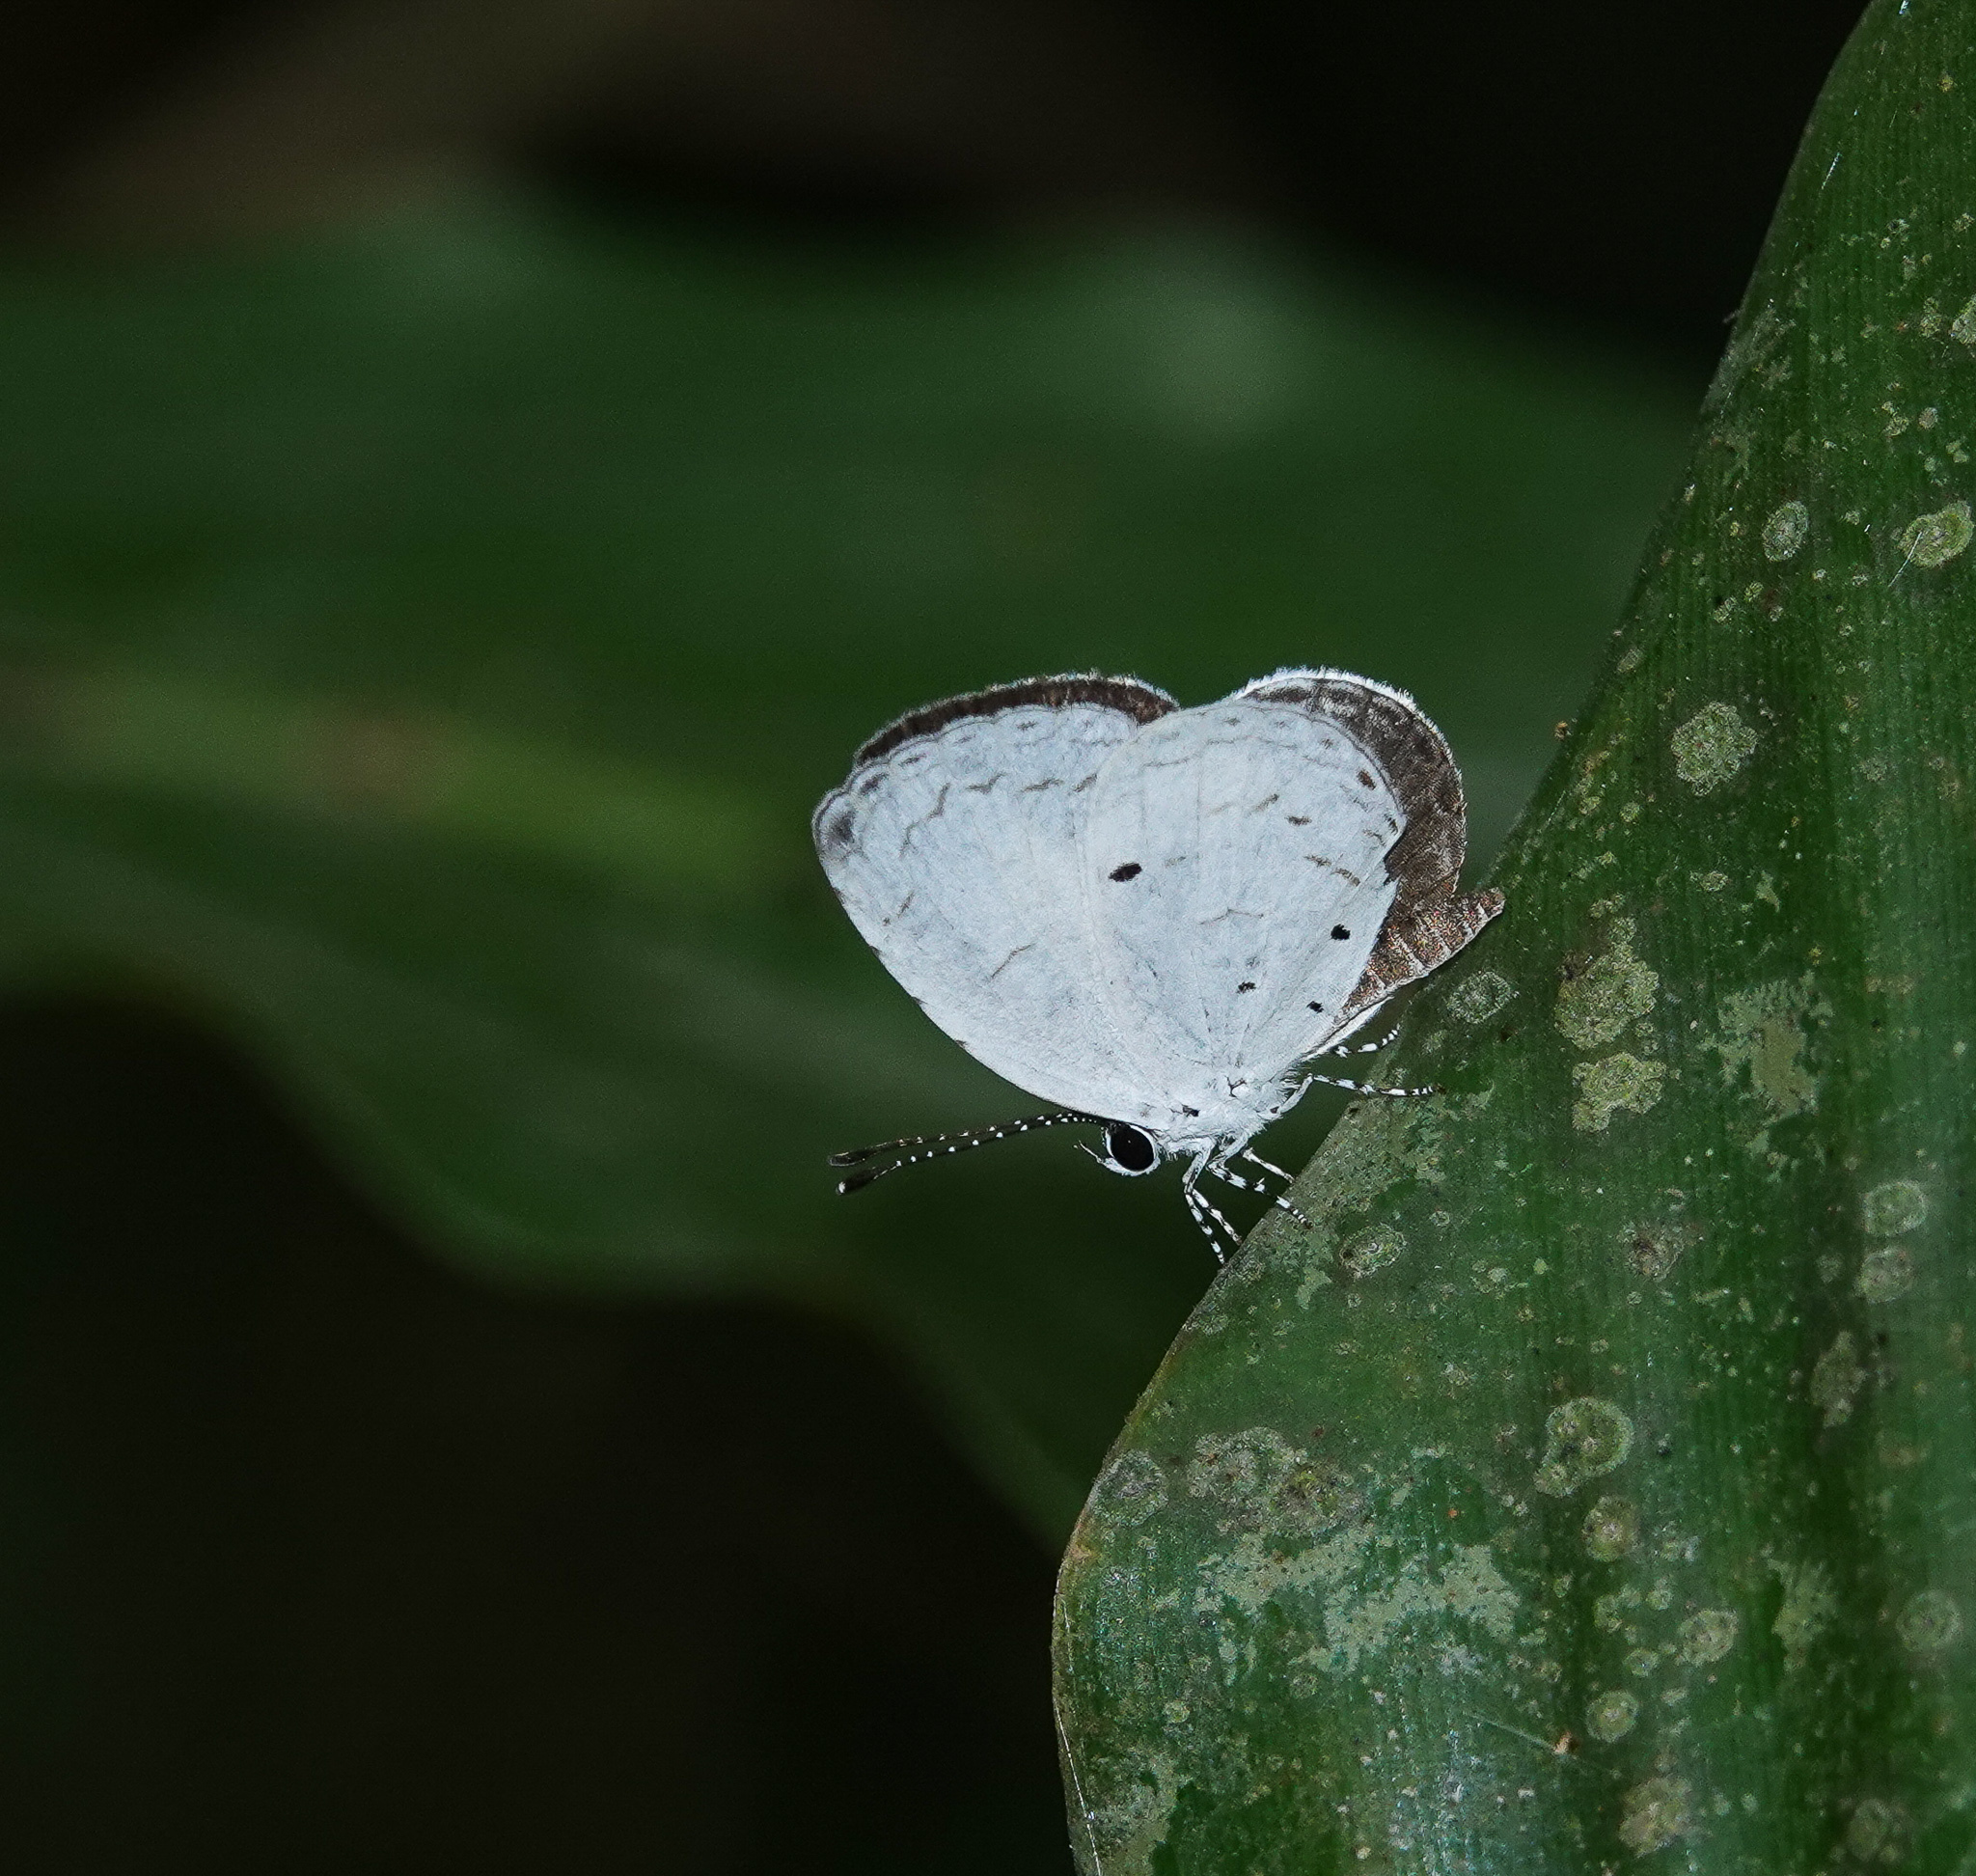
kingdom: Animalia
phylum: Arthropoda
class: Insecta
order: Lepidoptera
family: Lycaenidae
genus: Neopithecops
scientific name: Neopithecops zalmora
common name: Quaker
